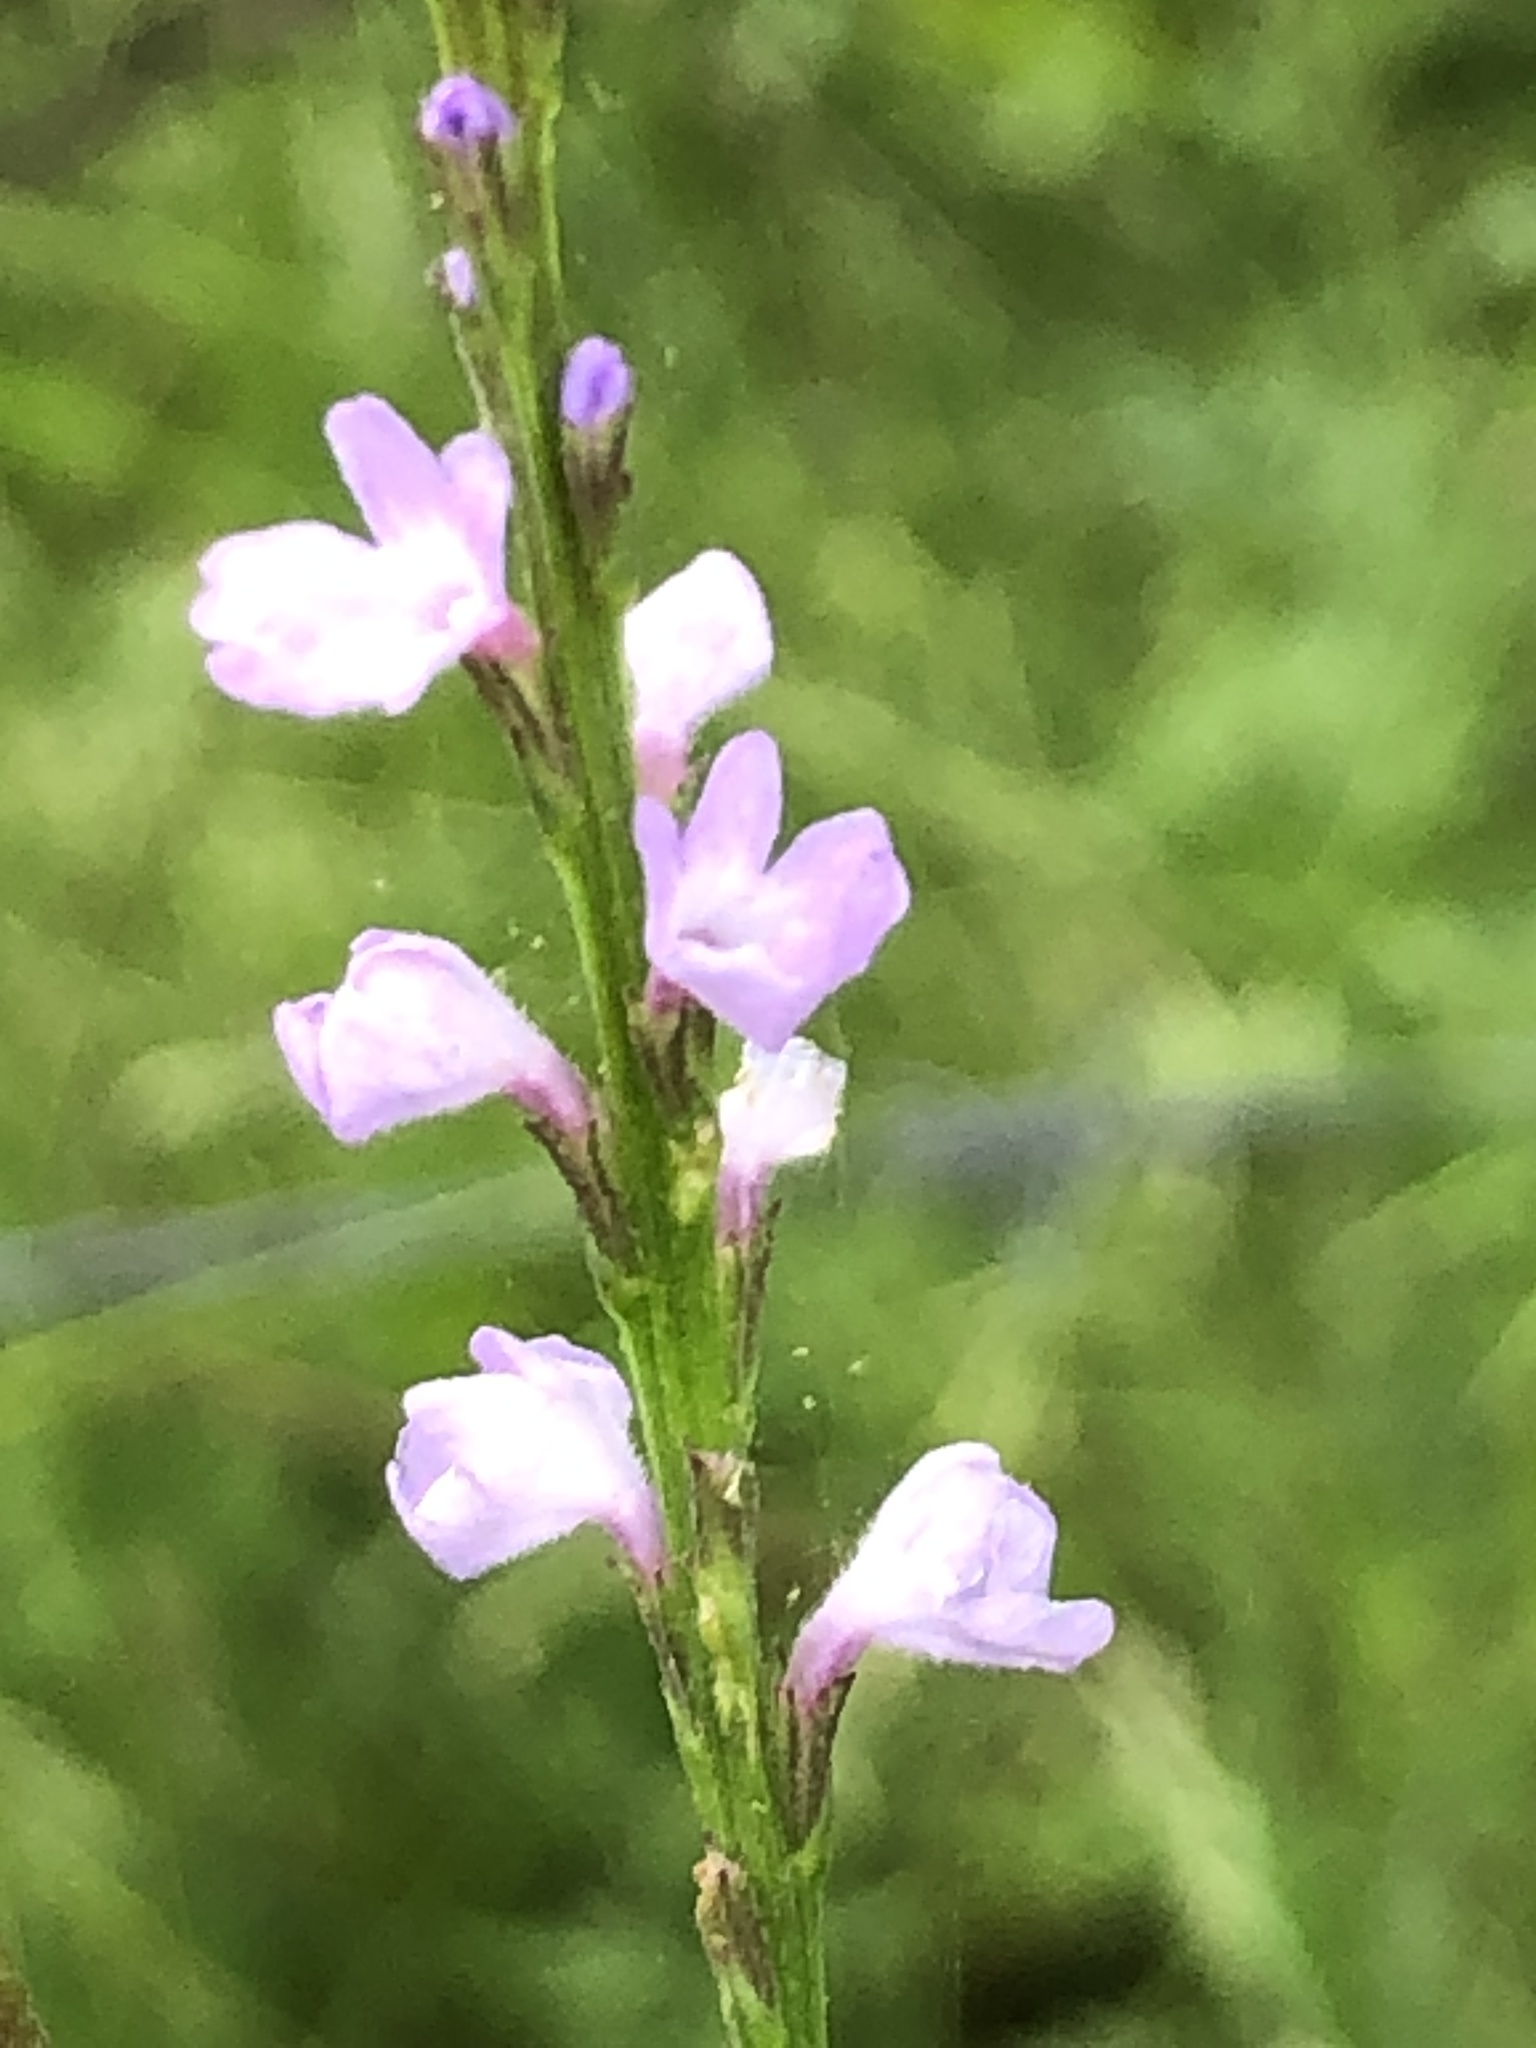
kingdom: Plantae
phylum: Tracheophyta
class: Magnoliopsida
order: Lamiales
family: Verbenaceae
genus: Verbena
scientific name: Verbena halei
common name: Texas vervain
